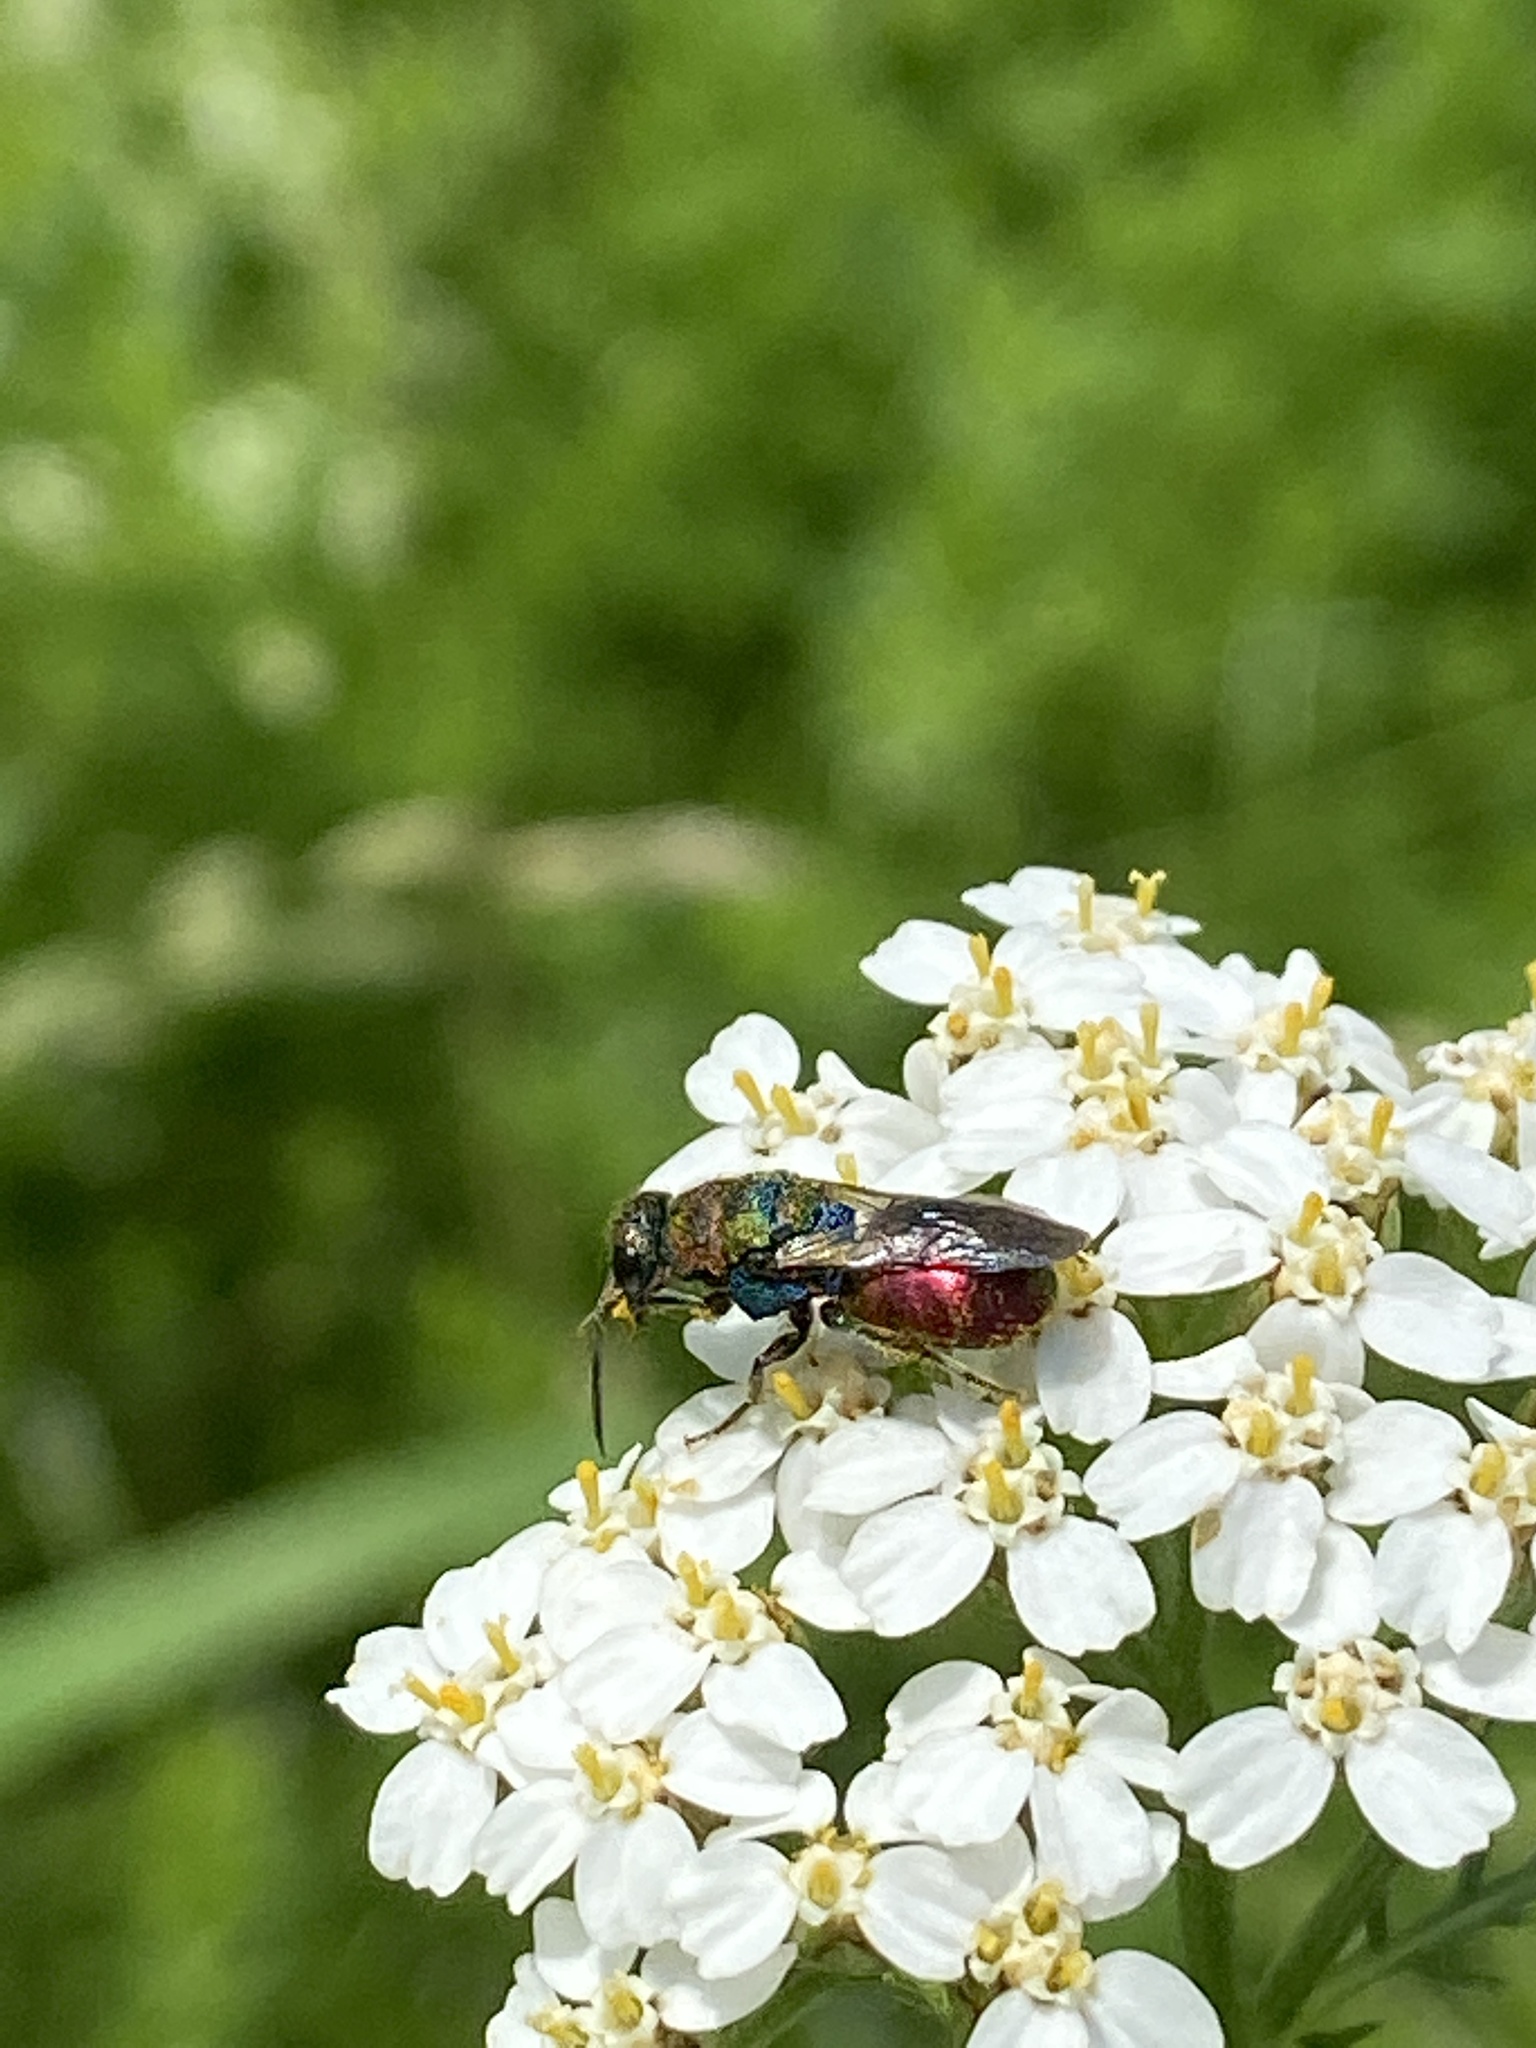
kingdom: Animalia
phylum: Arthropoda
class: Insecta
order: Hymenoptera
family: Chrysididae
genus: Hedychrum
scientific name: Hedychrum rutilans
